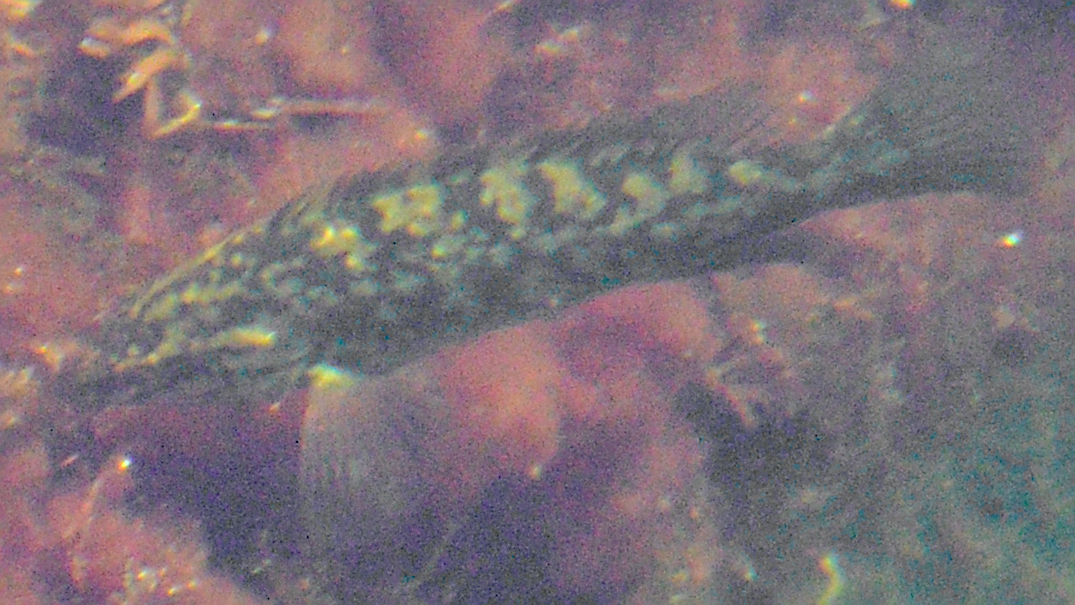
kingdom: Animalia
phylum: Chordata
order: Perciformes
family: Labridae
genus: Labrus
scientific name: Labrus bergylta
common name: Ballan wrasse
